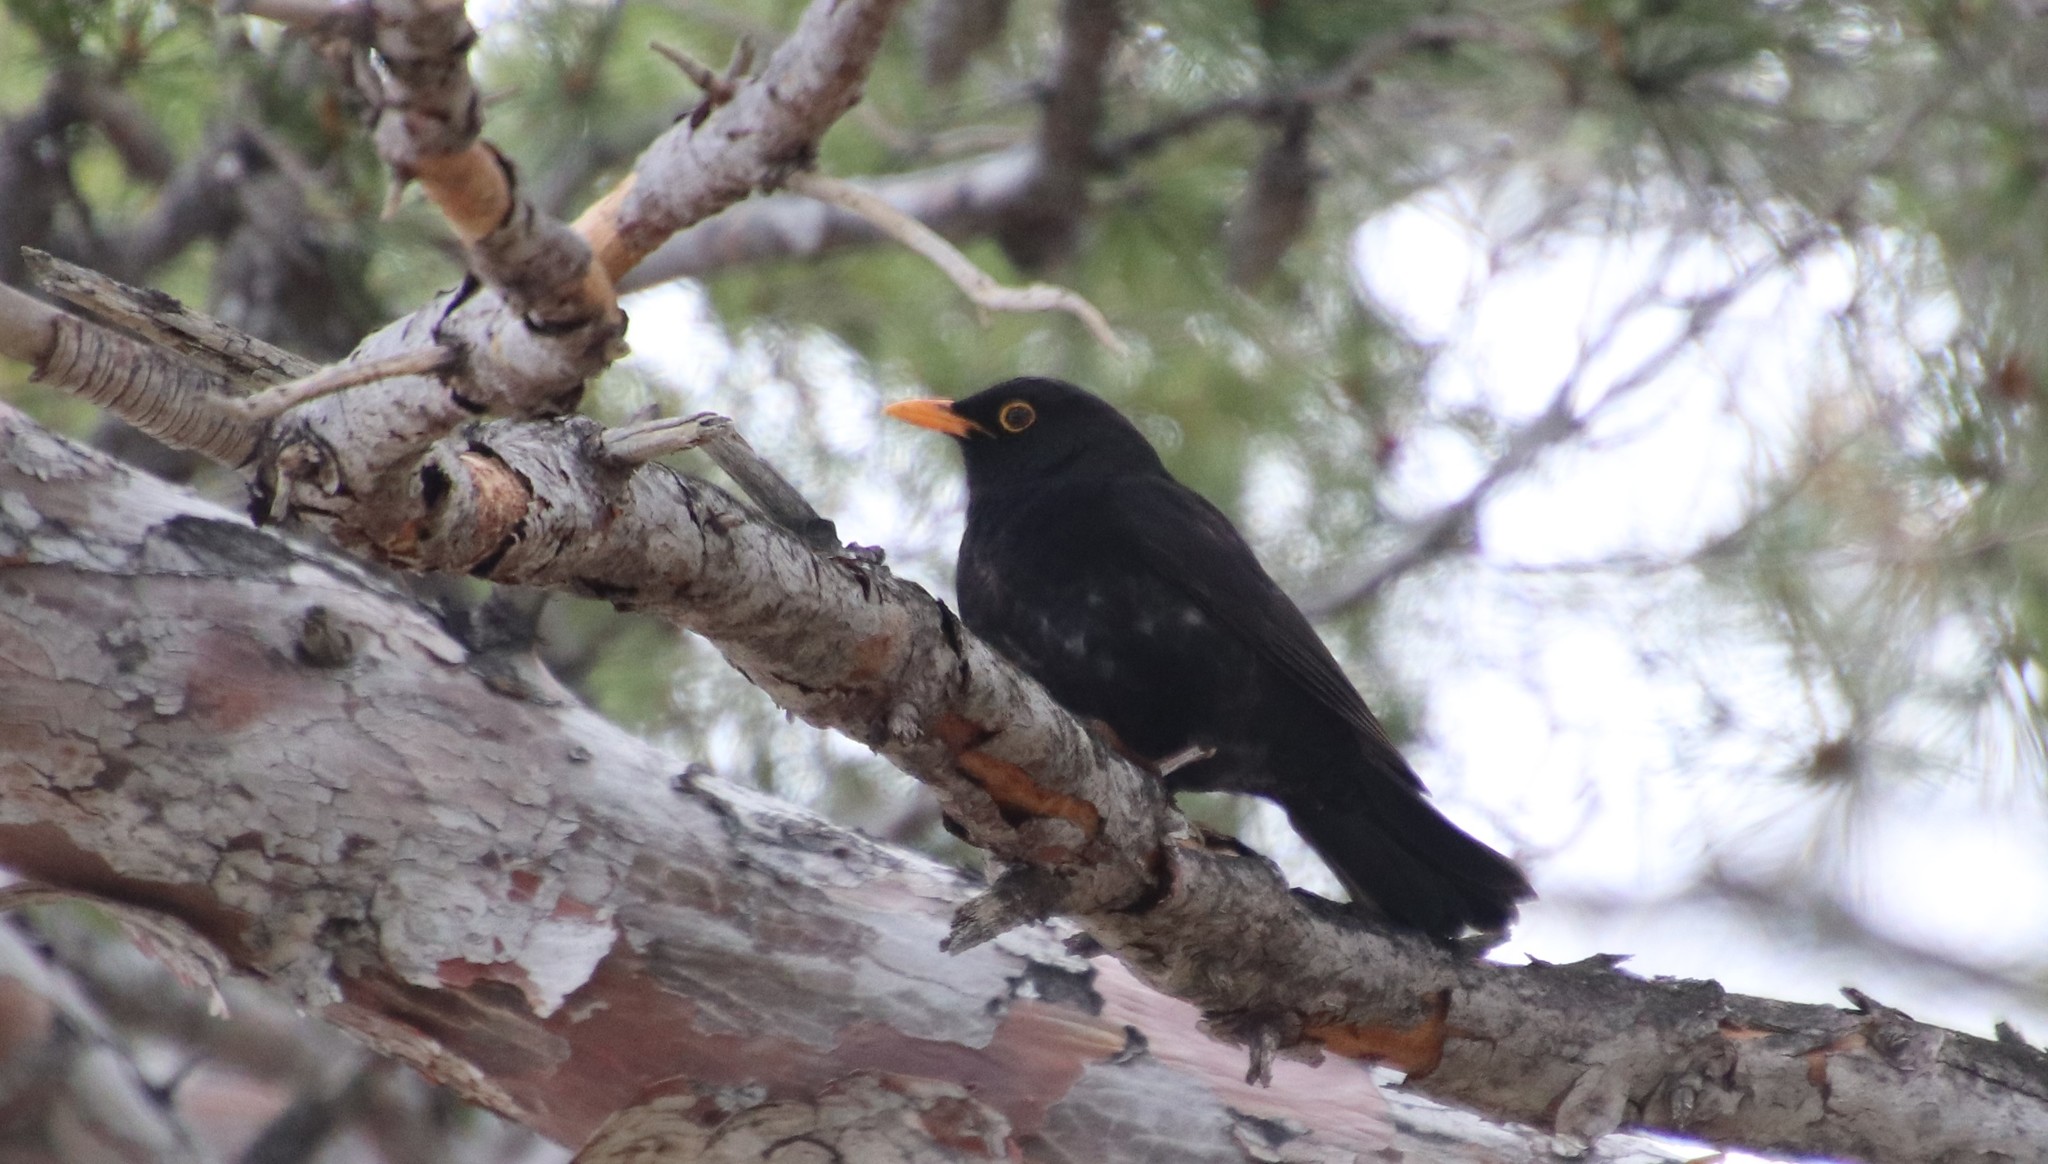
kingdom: Animalia
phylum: Chordata
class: Aves
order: Passeriformes
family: Turdidae
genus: Turdus
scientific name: Turdus merula
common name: Common blackbird
